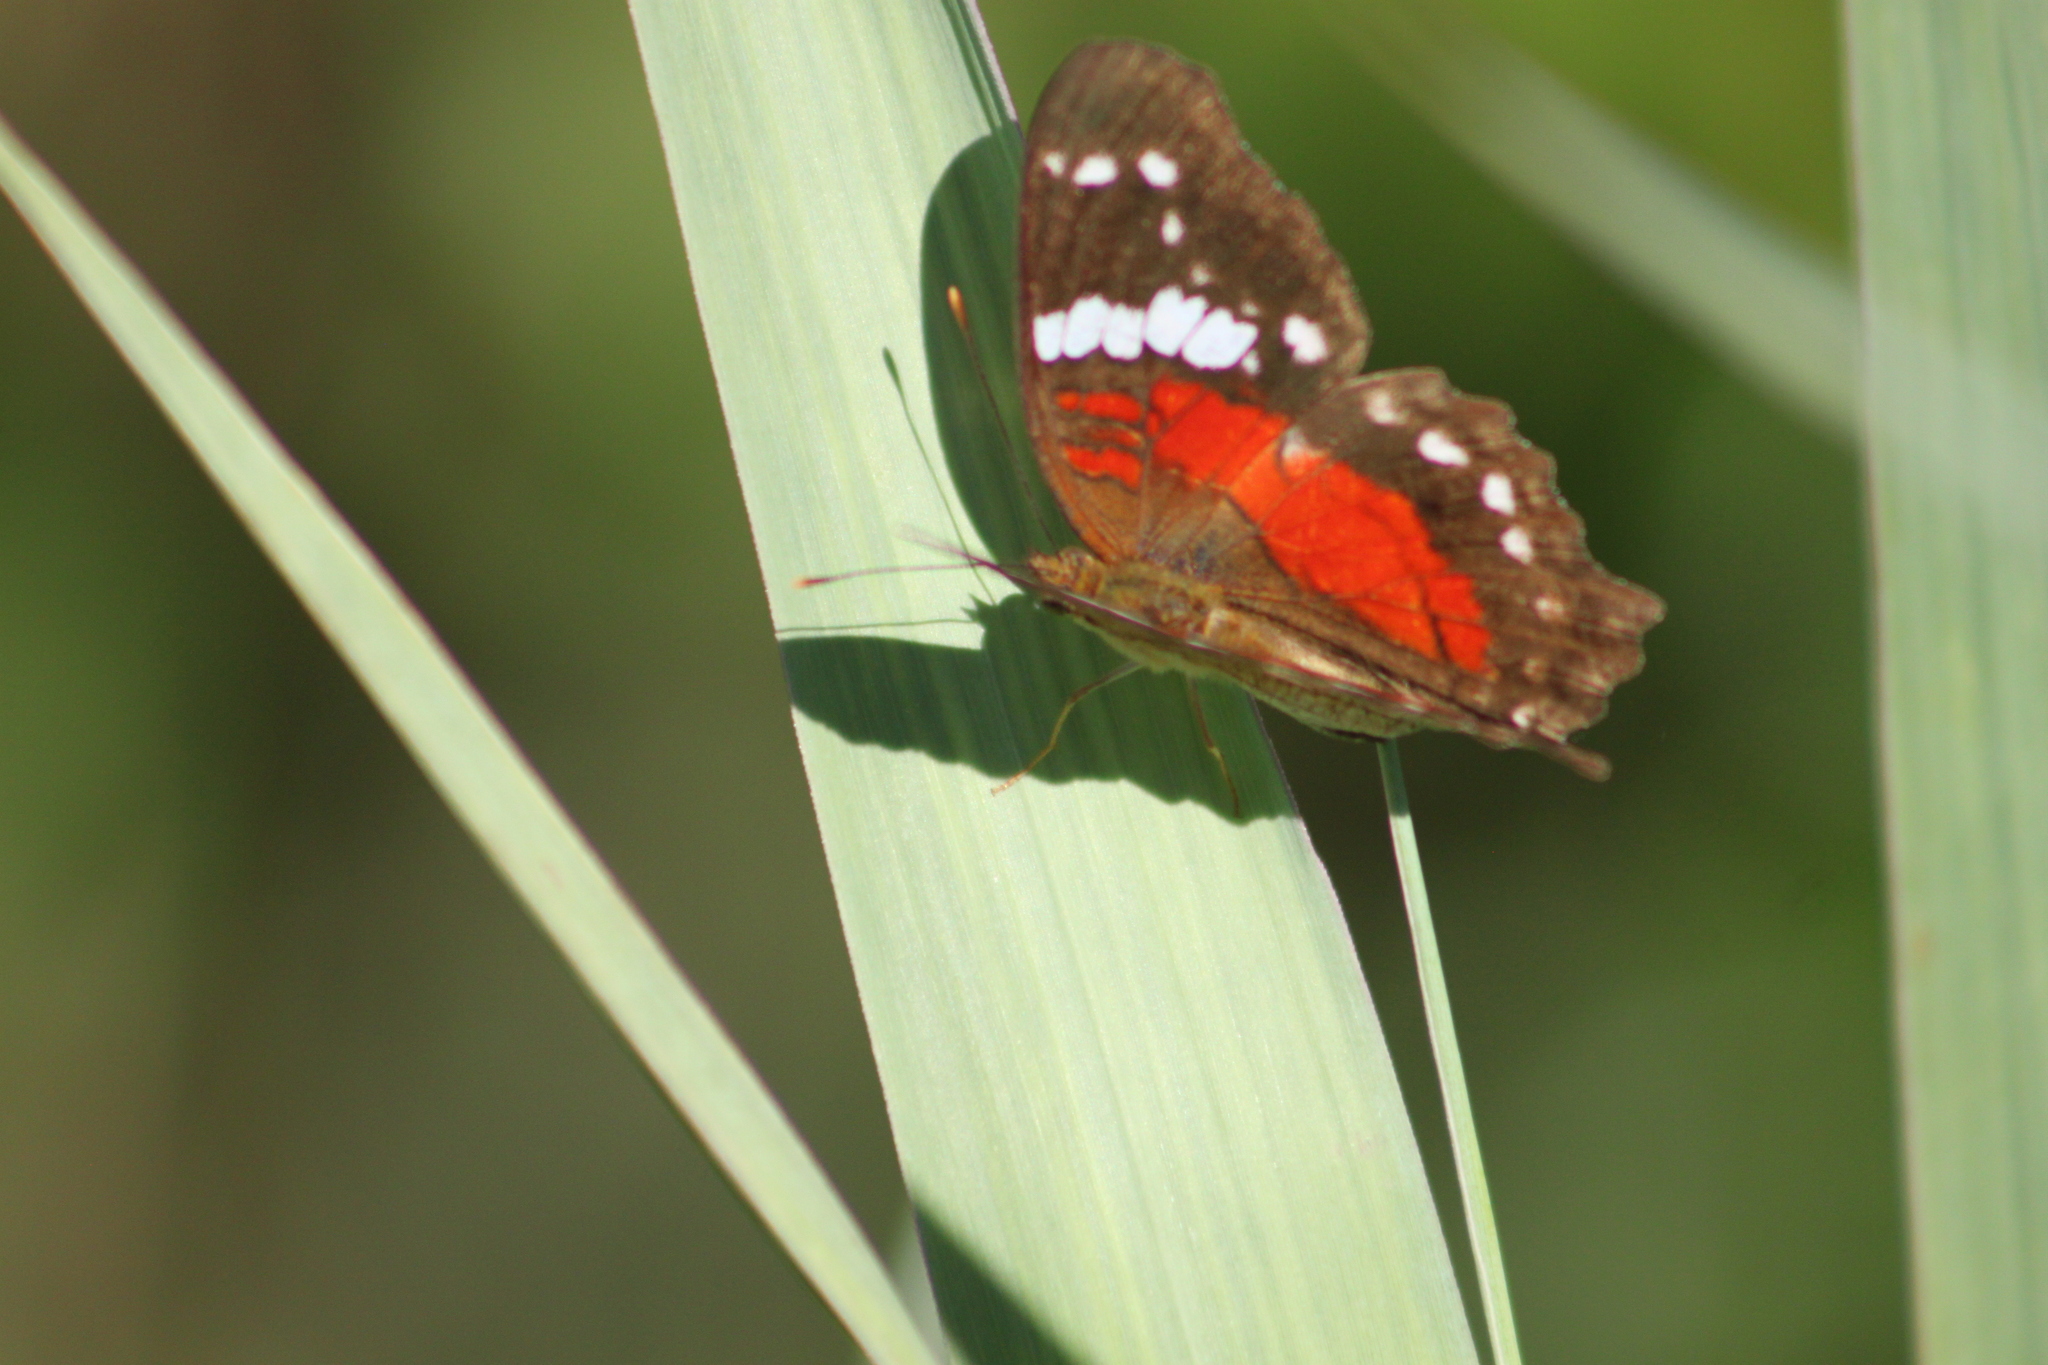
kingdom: Animalia
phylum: Arthropoda
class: Insecta
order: Lepidoptera
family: Nymphalidae
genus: Anartia
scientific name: Anartia amathea
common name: Red peacock
